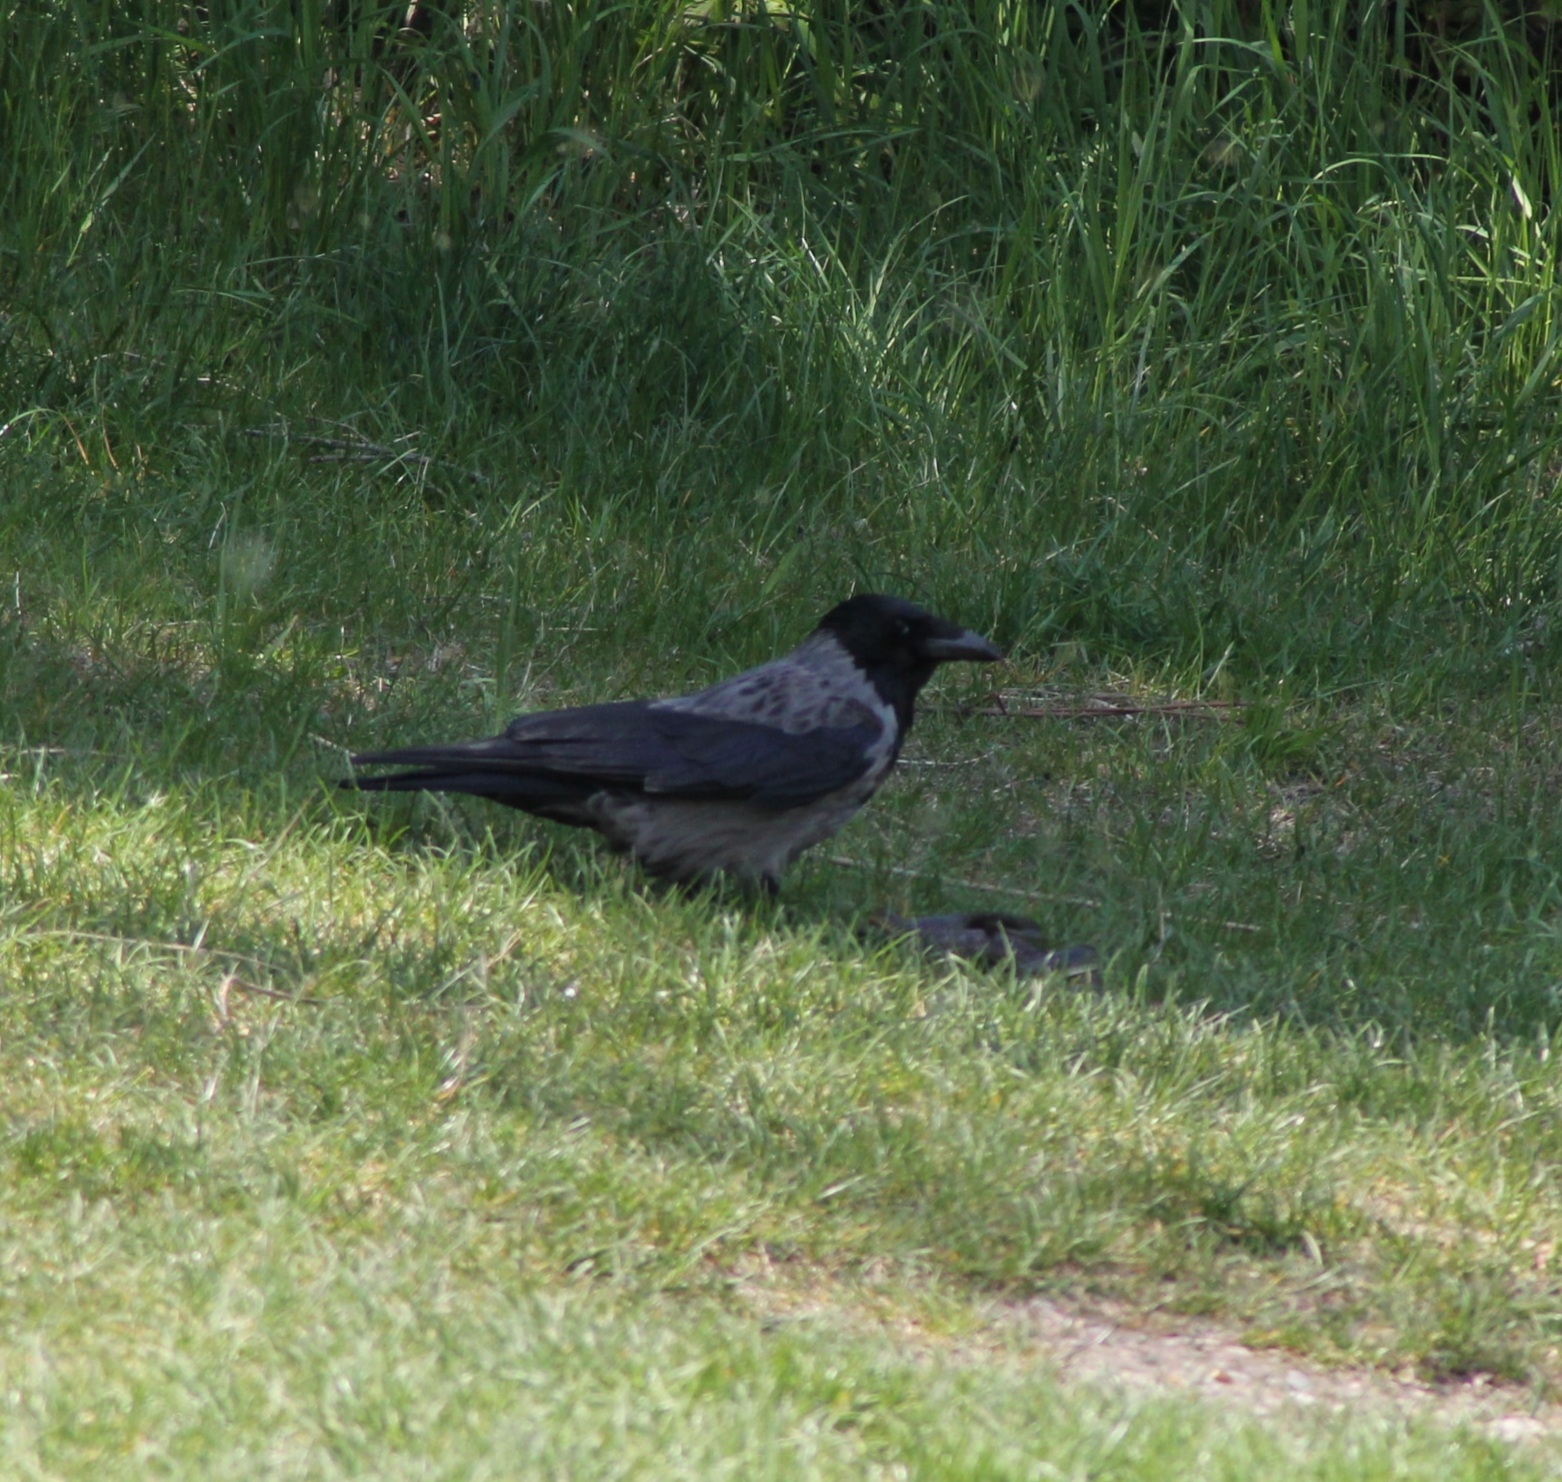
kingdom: Animalia
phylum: Chordata
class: Squamata
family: Colubridae
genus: Zamenis
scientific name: Zamenis longissimus
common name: Aesculapean snake
